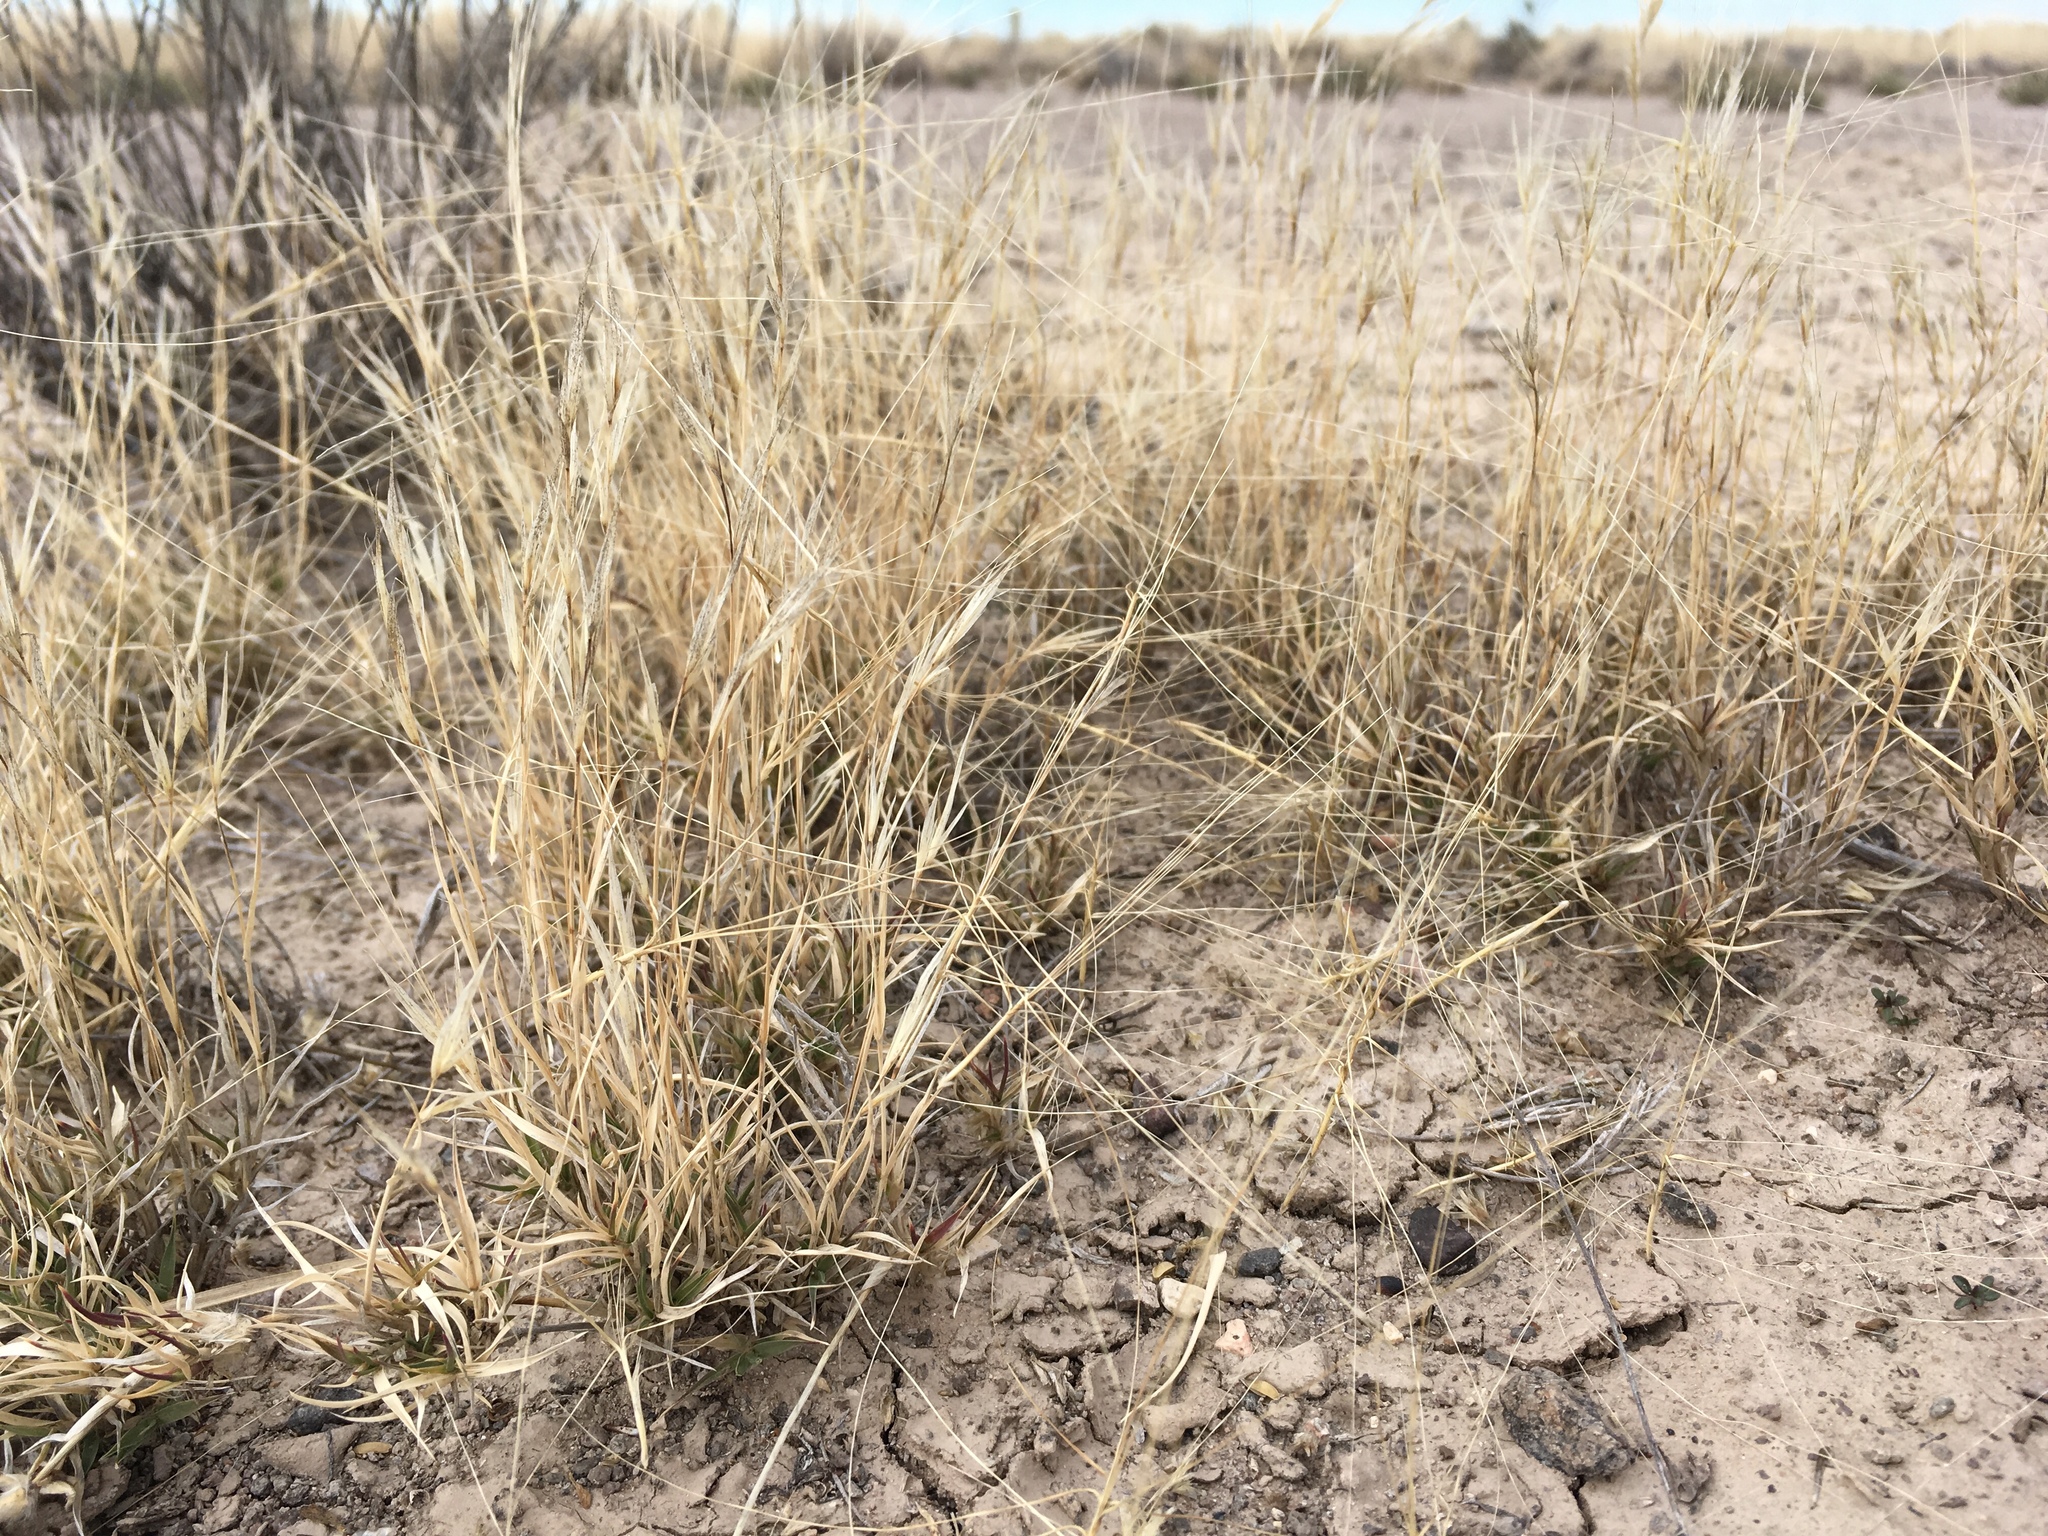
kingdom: Plantae
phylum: Tracheophyta
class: Liliopsida
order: Poales
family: Poaceae
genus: Scleropogon
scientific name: Scleropogon brevifolius
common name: Burro grass
